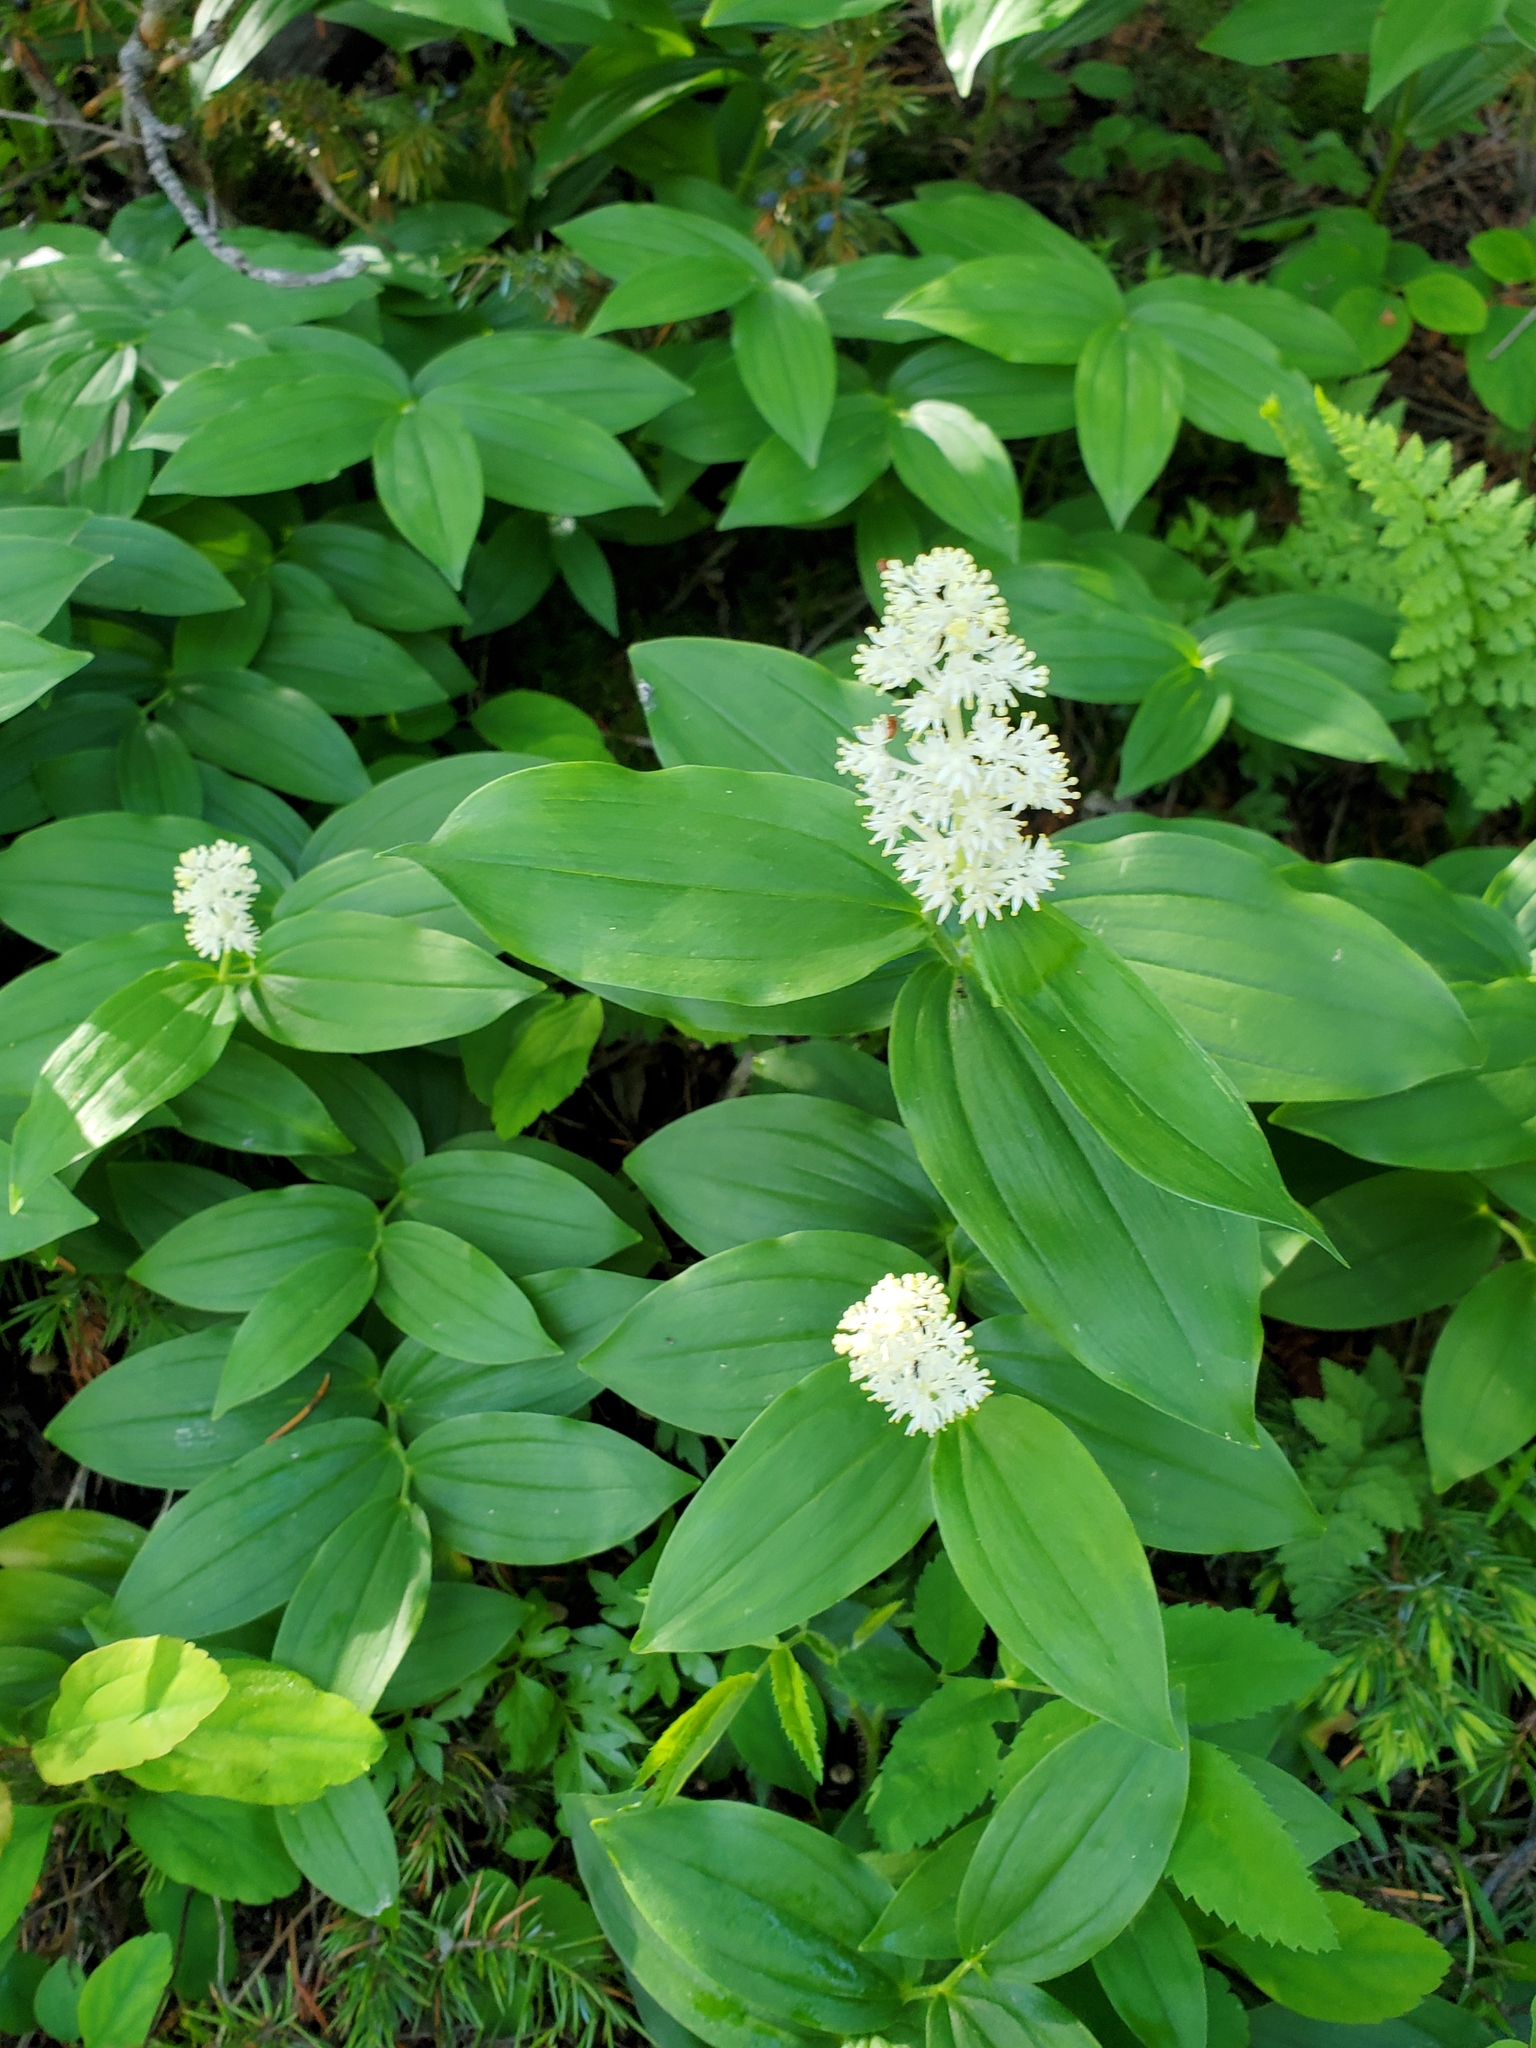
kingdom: Plantae
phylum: Tracheophyta
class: Liliopsida
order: Asparagales
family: Asparagaceae
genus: Maianthemum
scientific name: Maianthemum racemosum
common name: False spikenard
